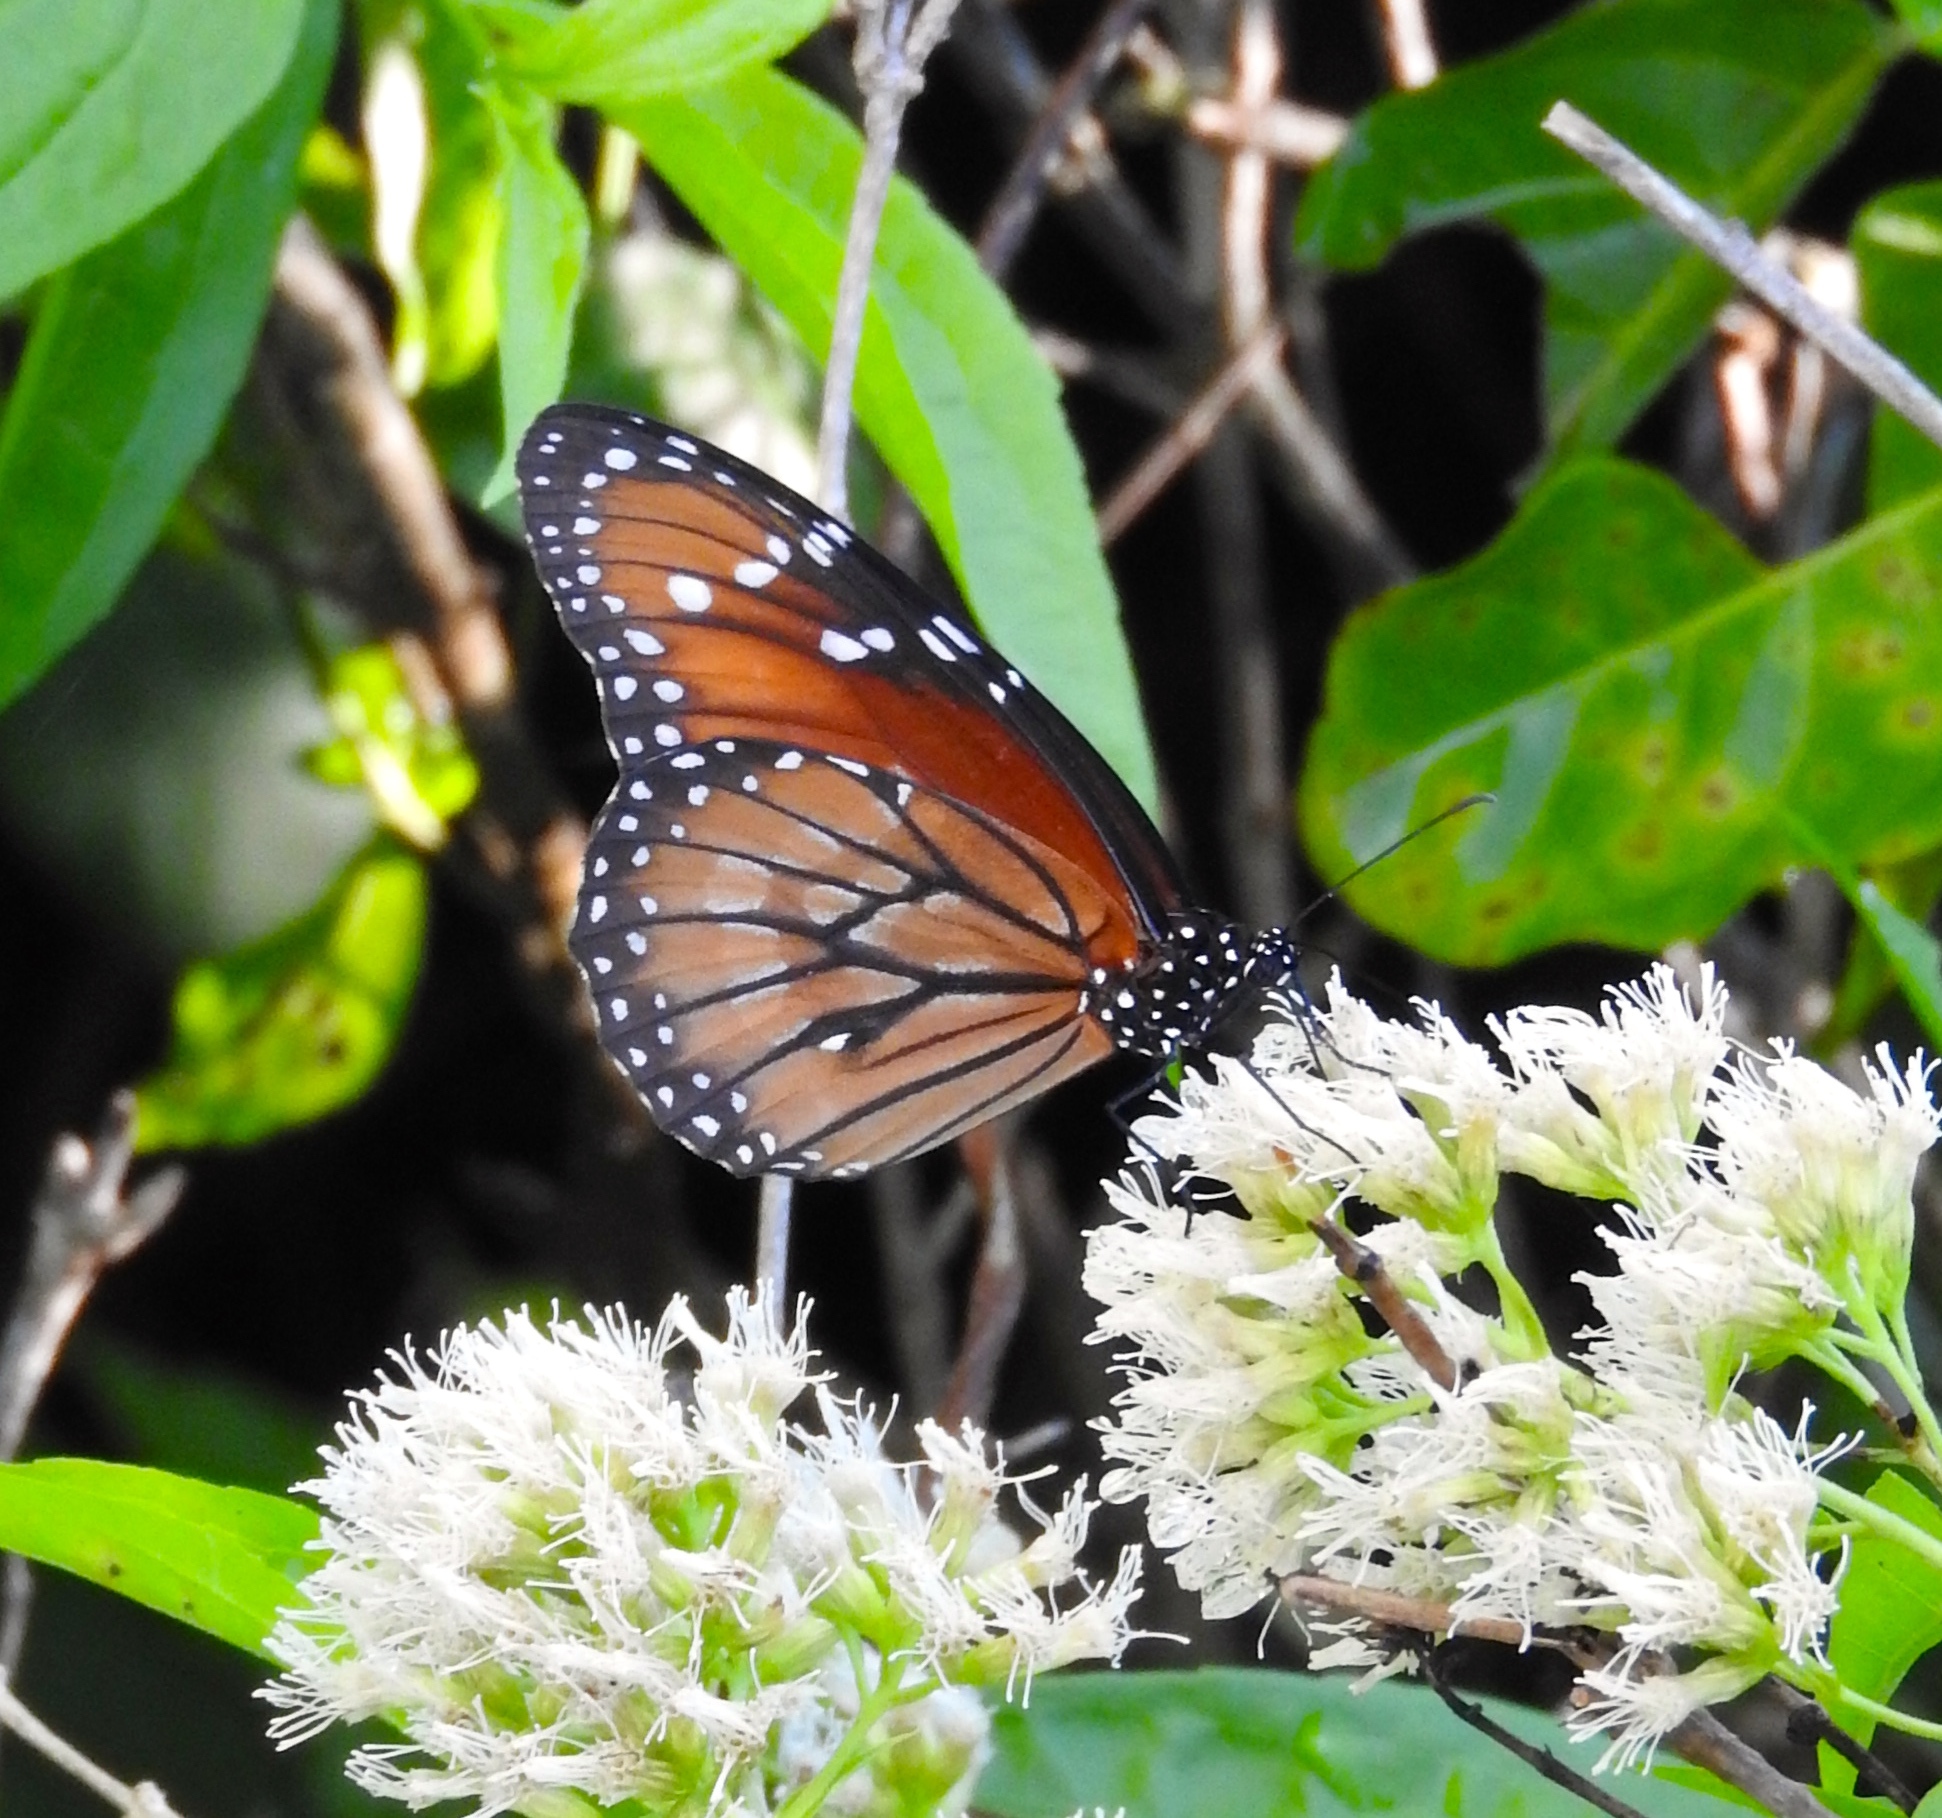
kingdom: Animalia
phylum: Arthropoda
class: Insecta
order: Lepidoptera
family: Nymphalidae
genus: Danaus
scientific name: Danaus eresimus
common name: Soldier
